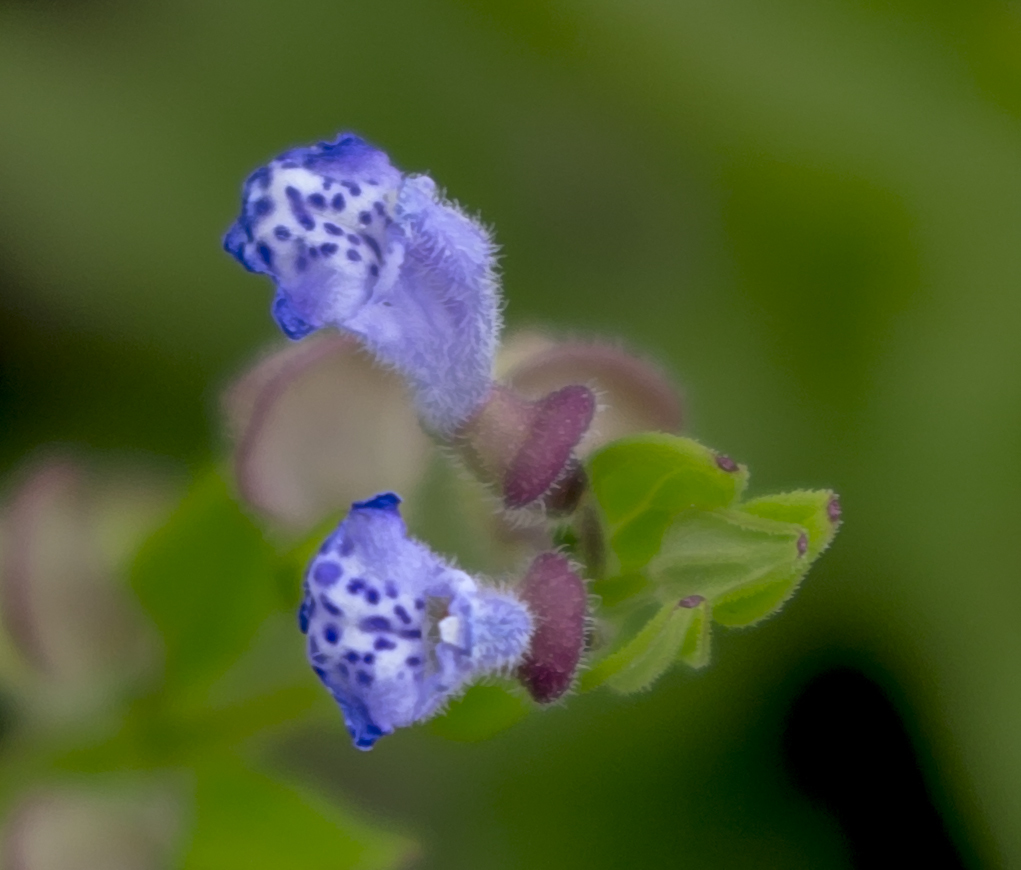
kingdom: Plantae
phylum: Tracheophyta
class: Magnoliopsida
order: Lamiales
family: Lamiaceae
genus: Scutellaria
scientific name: Scutellaria parvula
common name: Little scullcap
